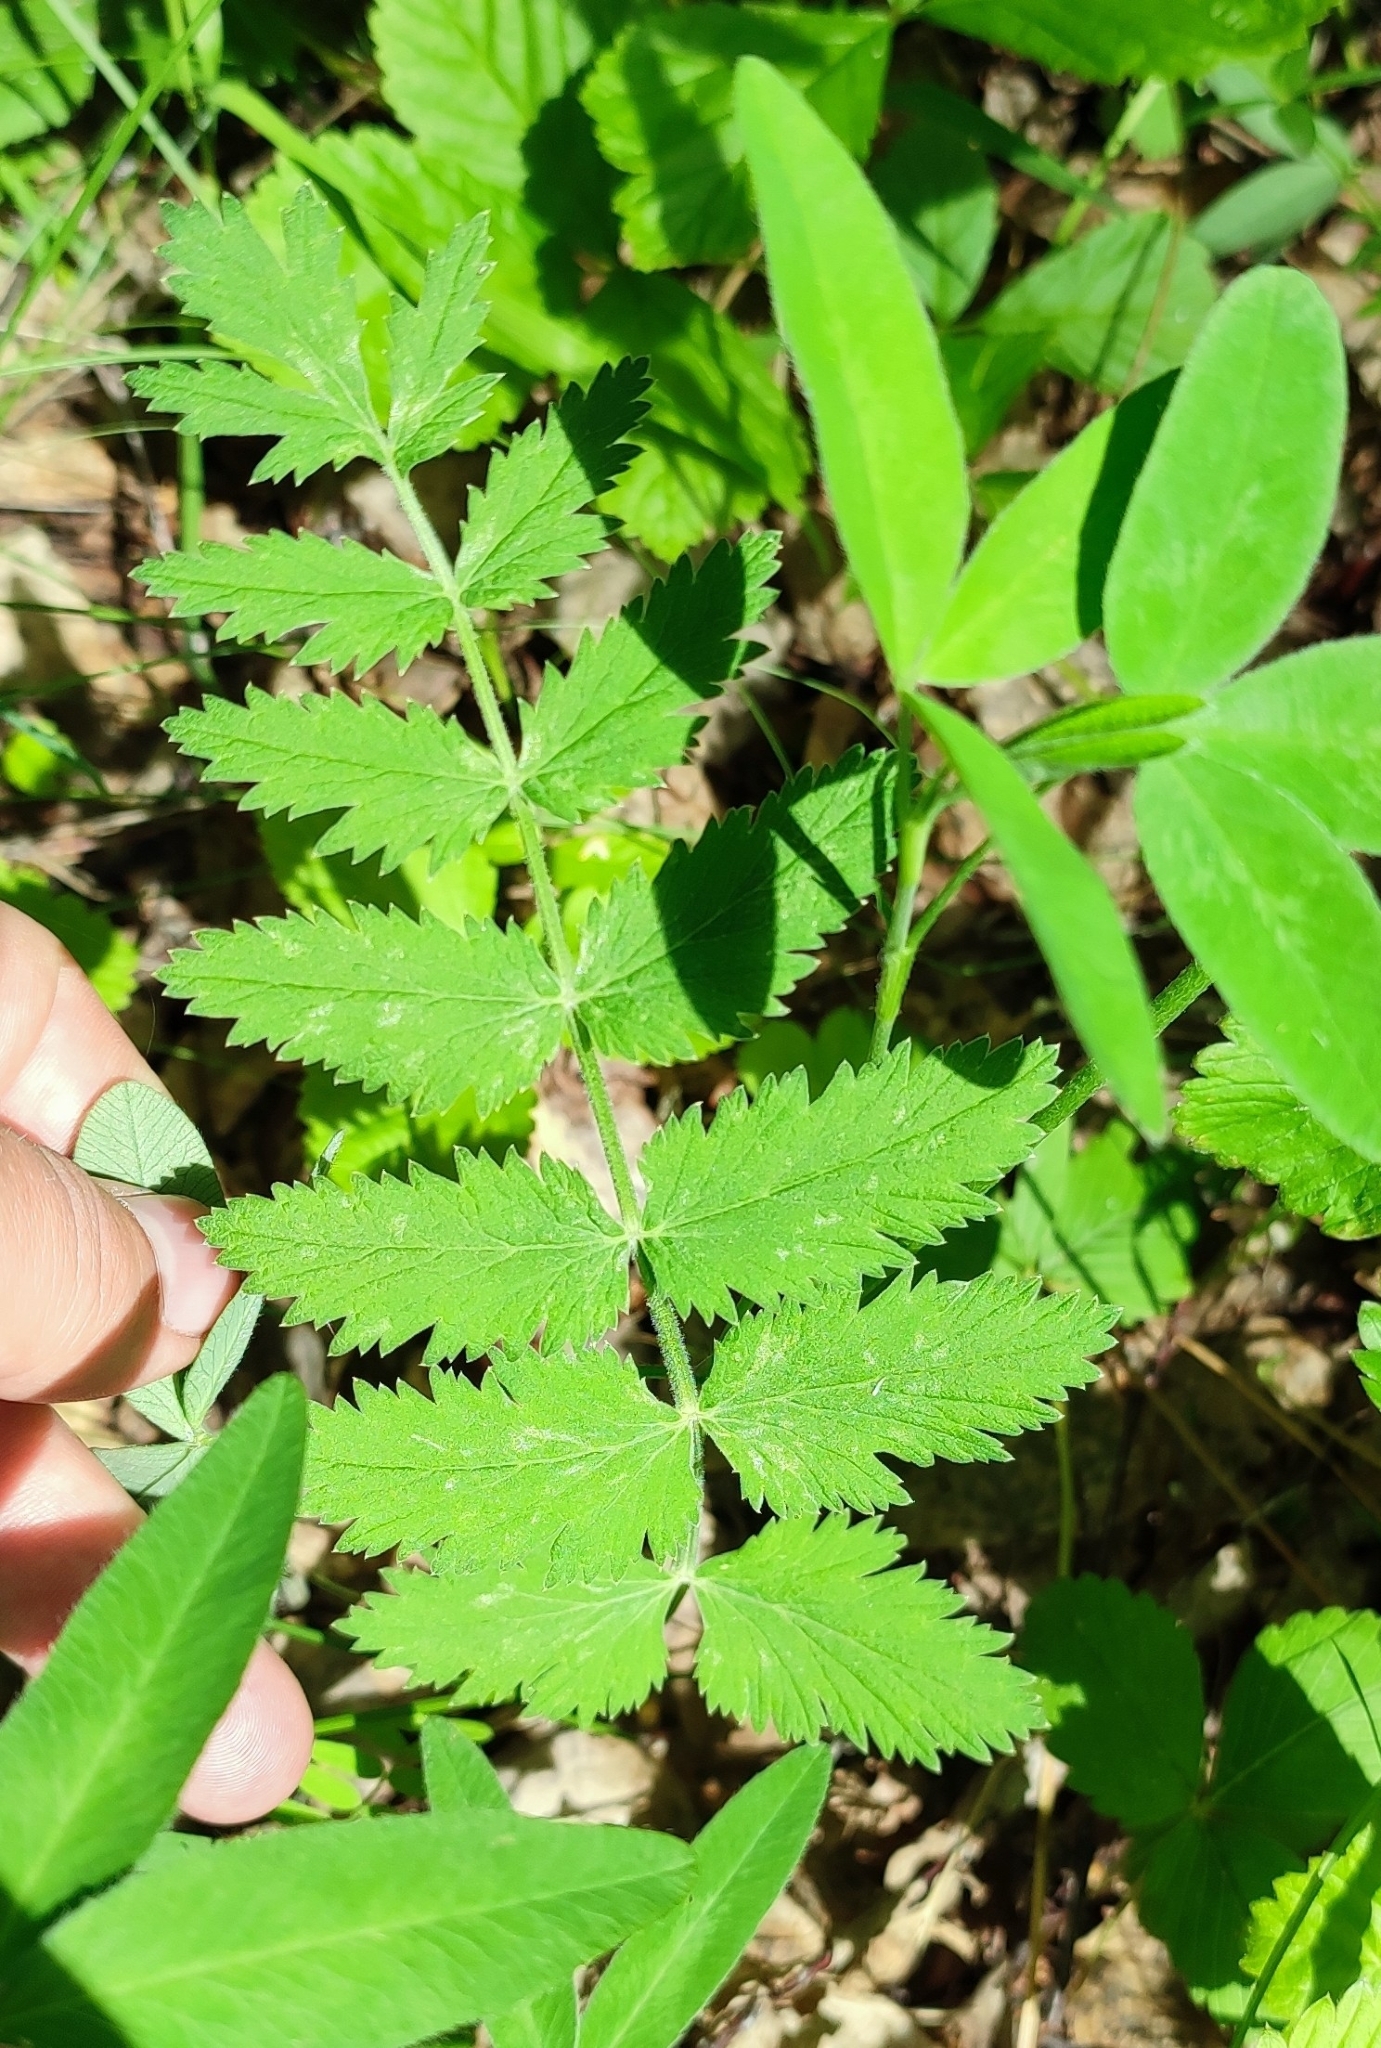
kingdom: Plantae
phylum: Tracheophyta
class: Magnoliopsida
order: Apiales
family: Apiaceae
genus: Pimpinella
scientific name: Pimpinella saxifraga
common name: Burnet-saxifrage
